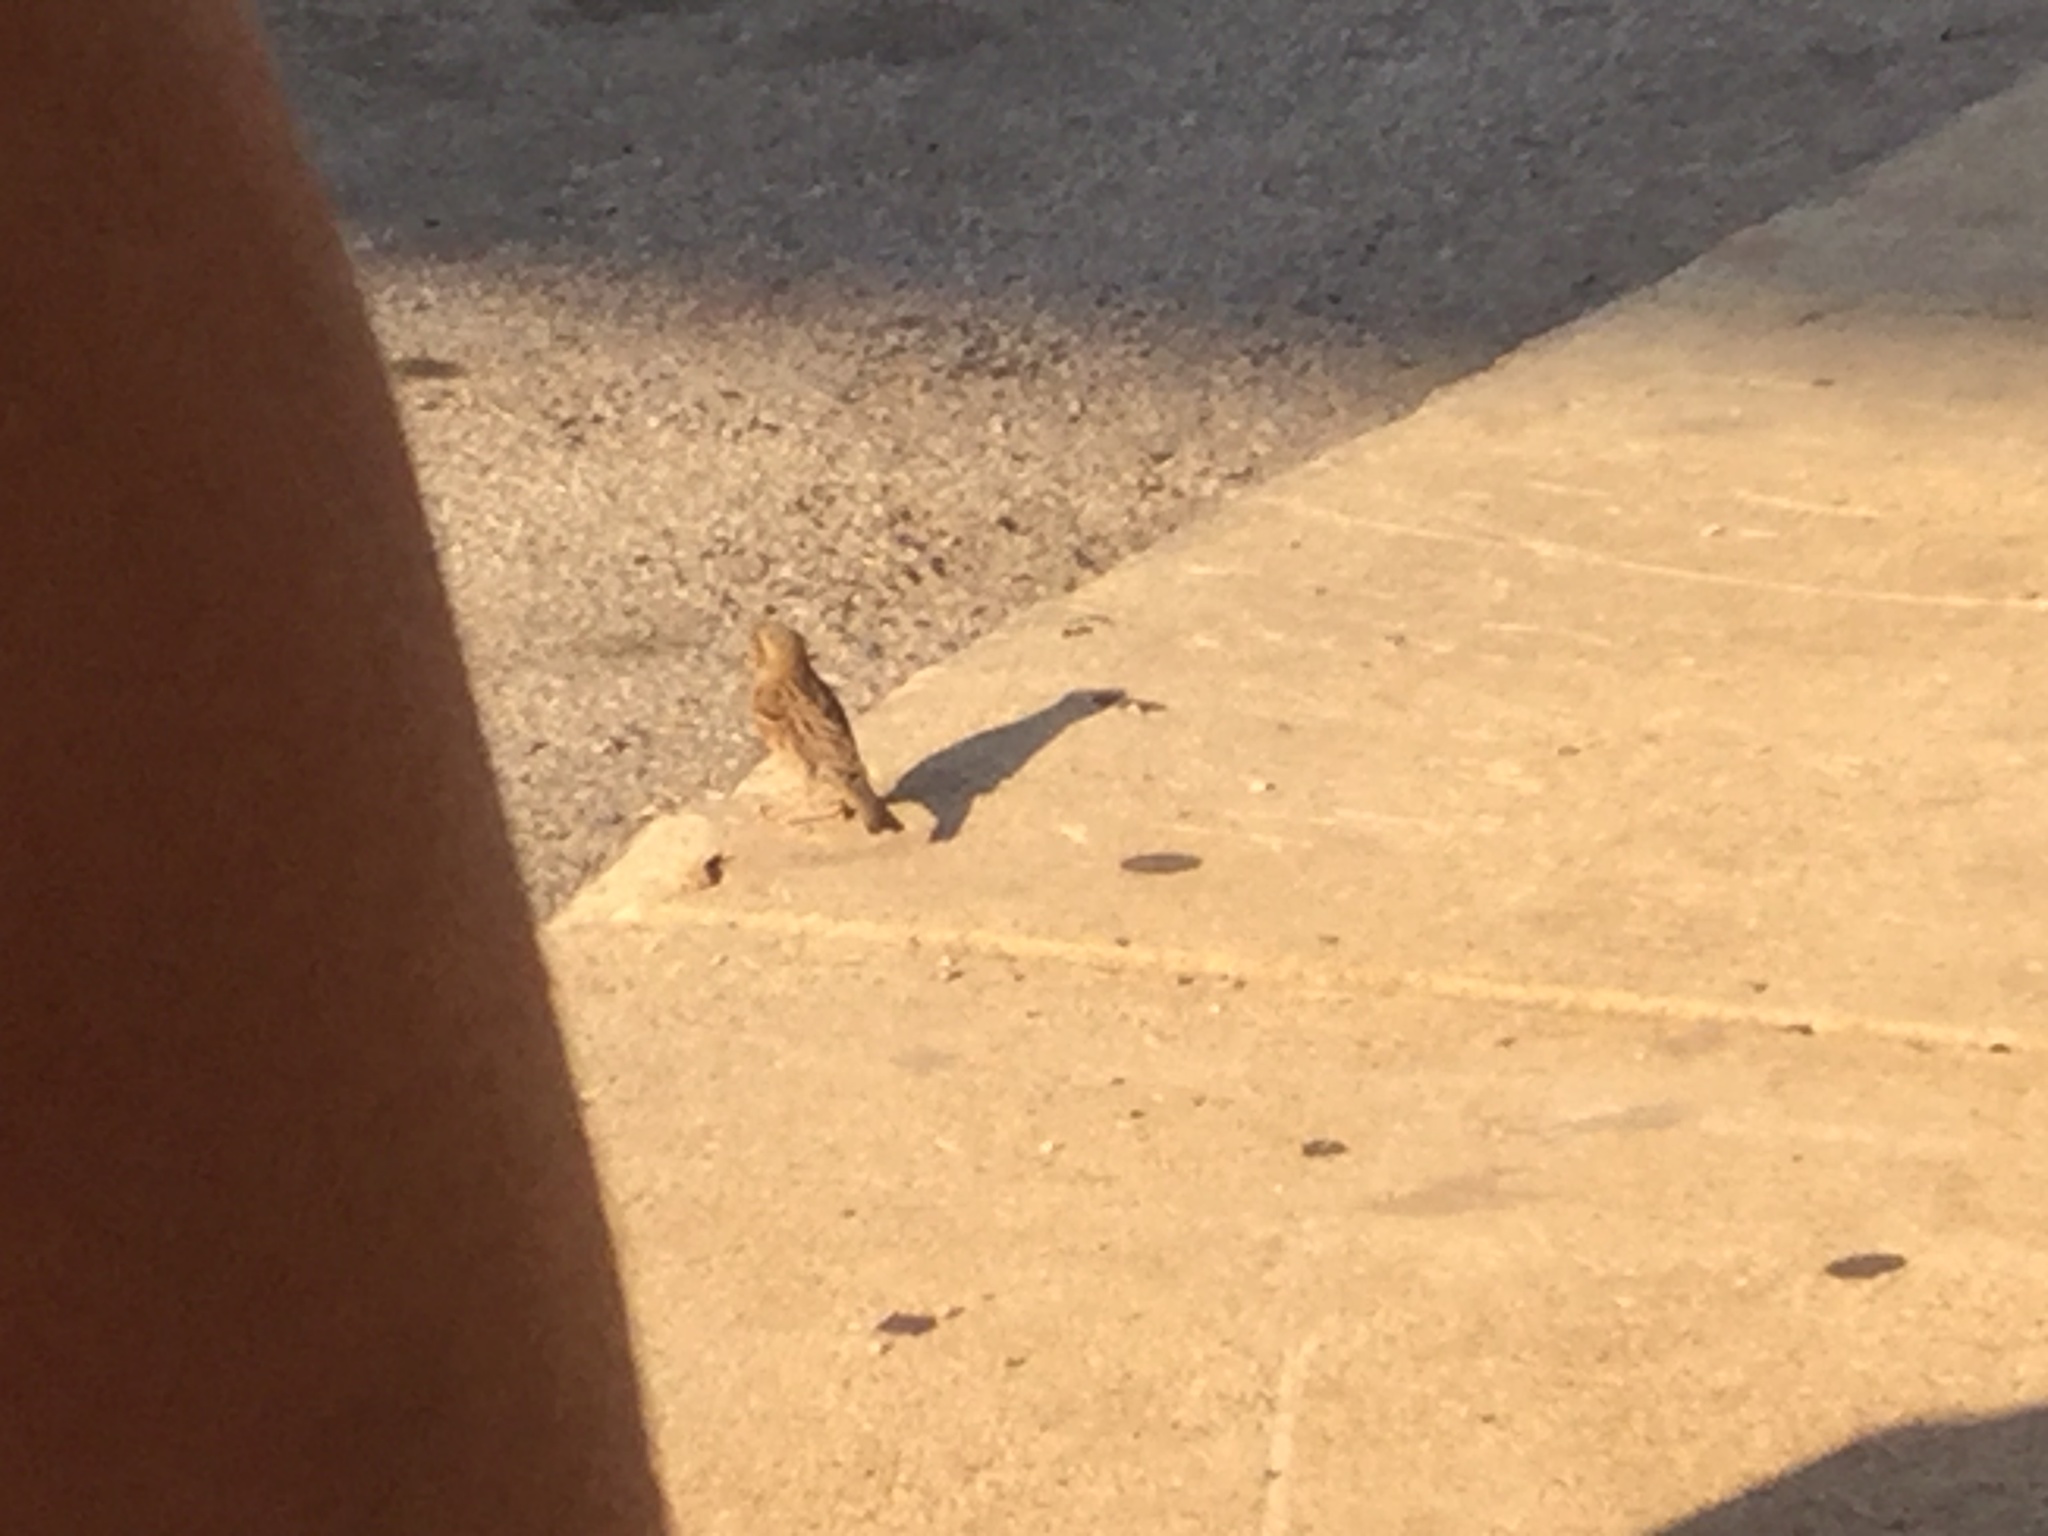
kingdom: Animalia
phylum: Chordata
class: Aves
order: Passeriformes
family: Passeridae
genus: Passer
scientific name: Passer domesticus
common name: House sparrow
